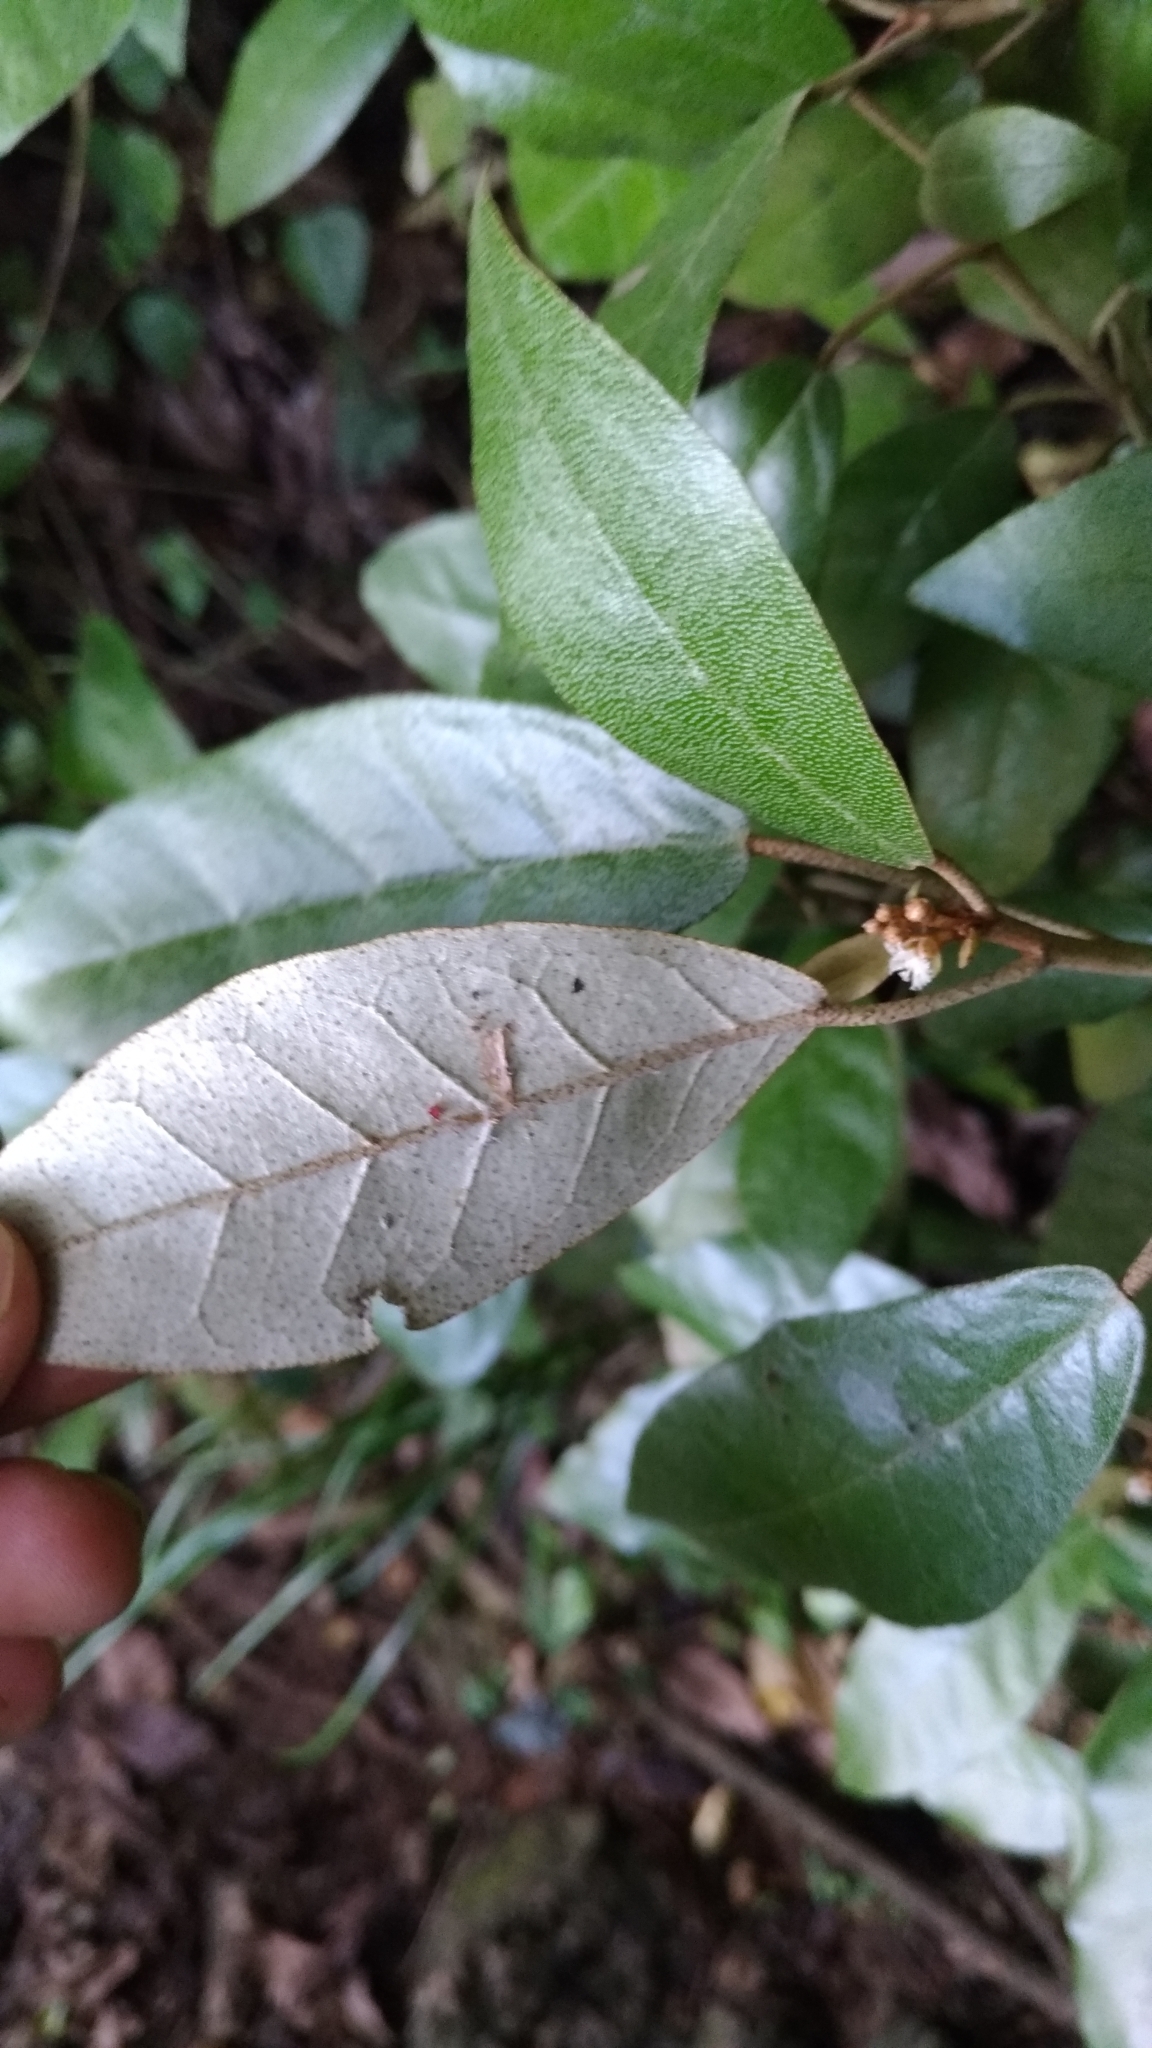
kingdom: Plantae
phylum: Tracheophyta
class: Magnoliopsida
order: Malpighiales
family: Euphorbiaceae
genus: Croton
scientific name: Croton cascarilloides
